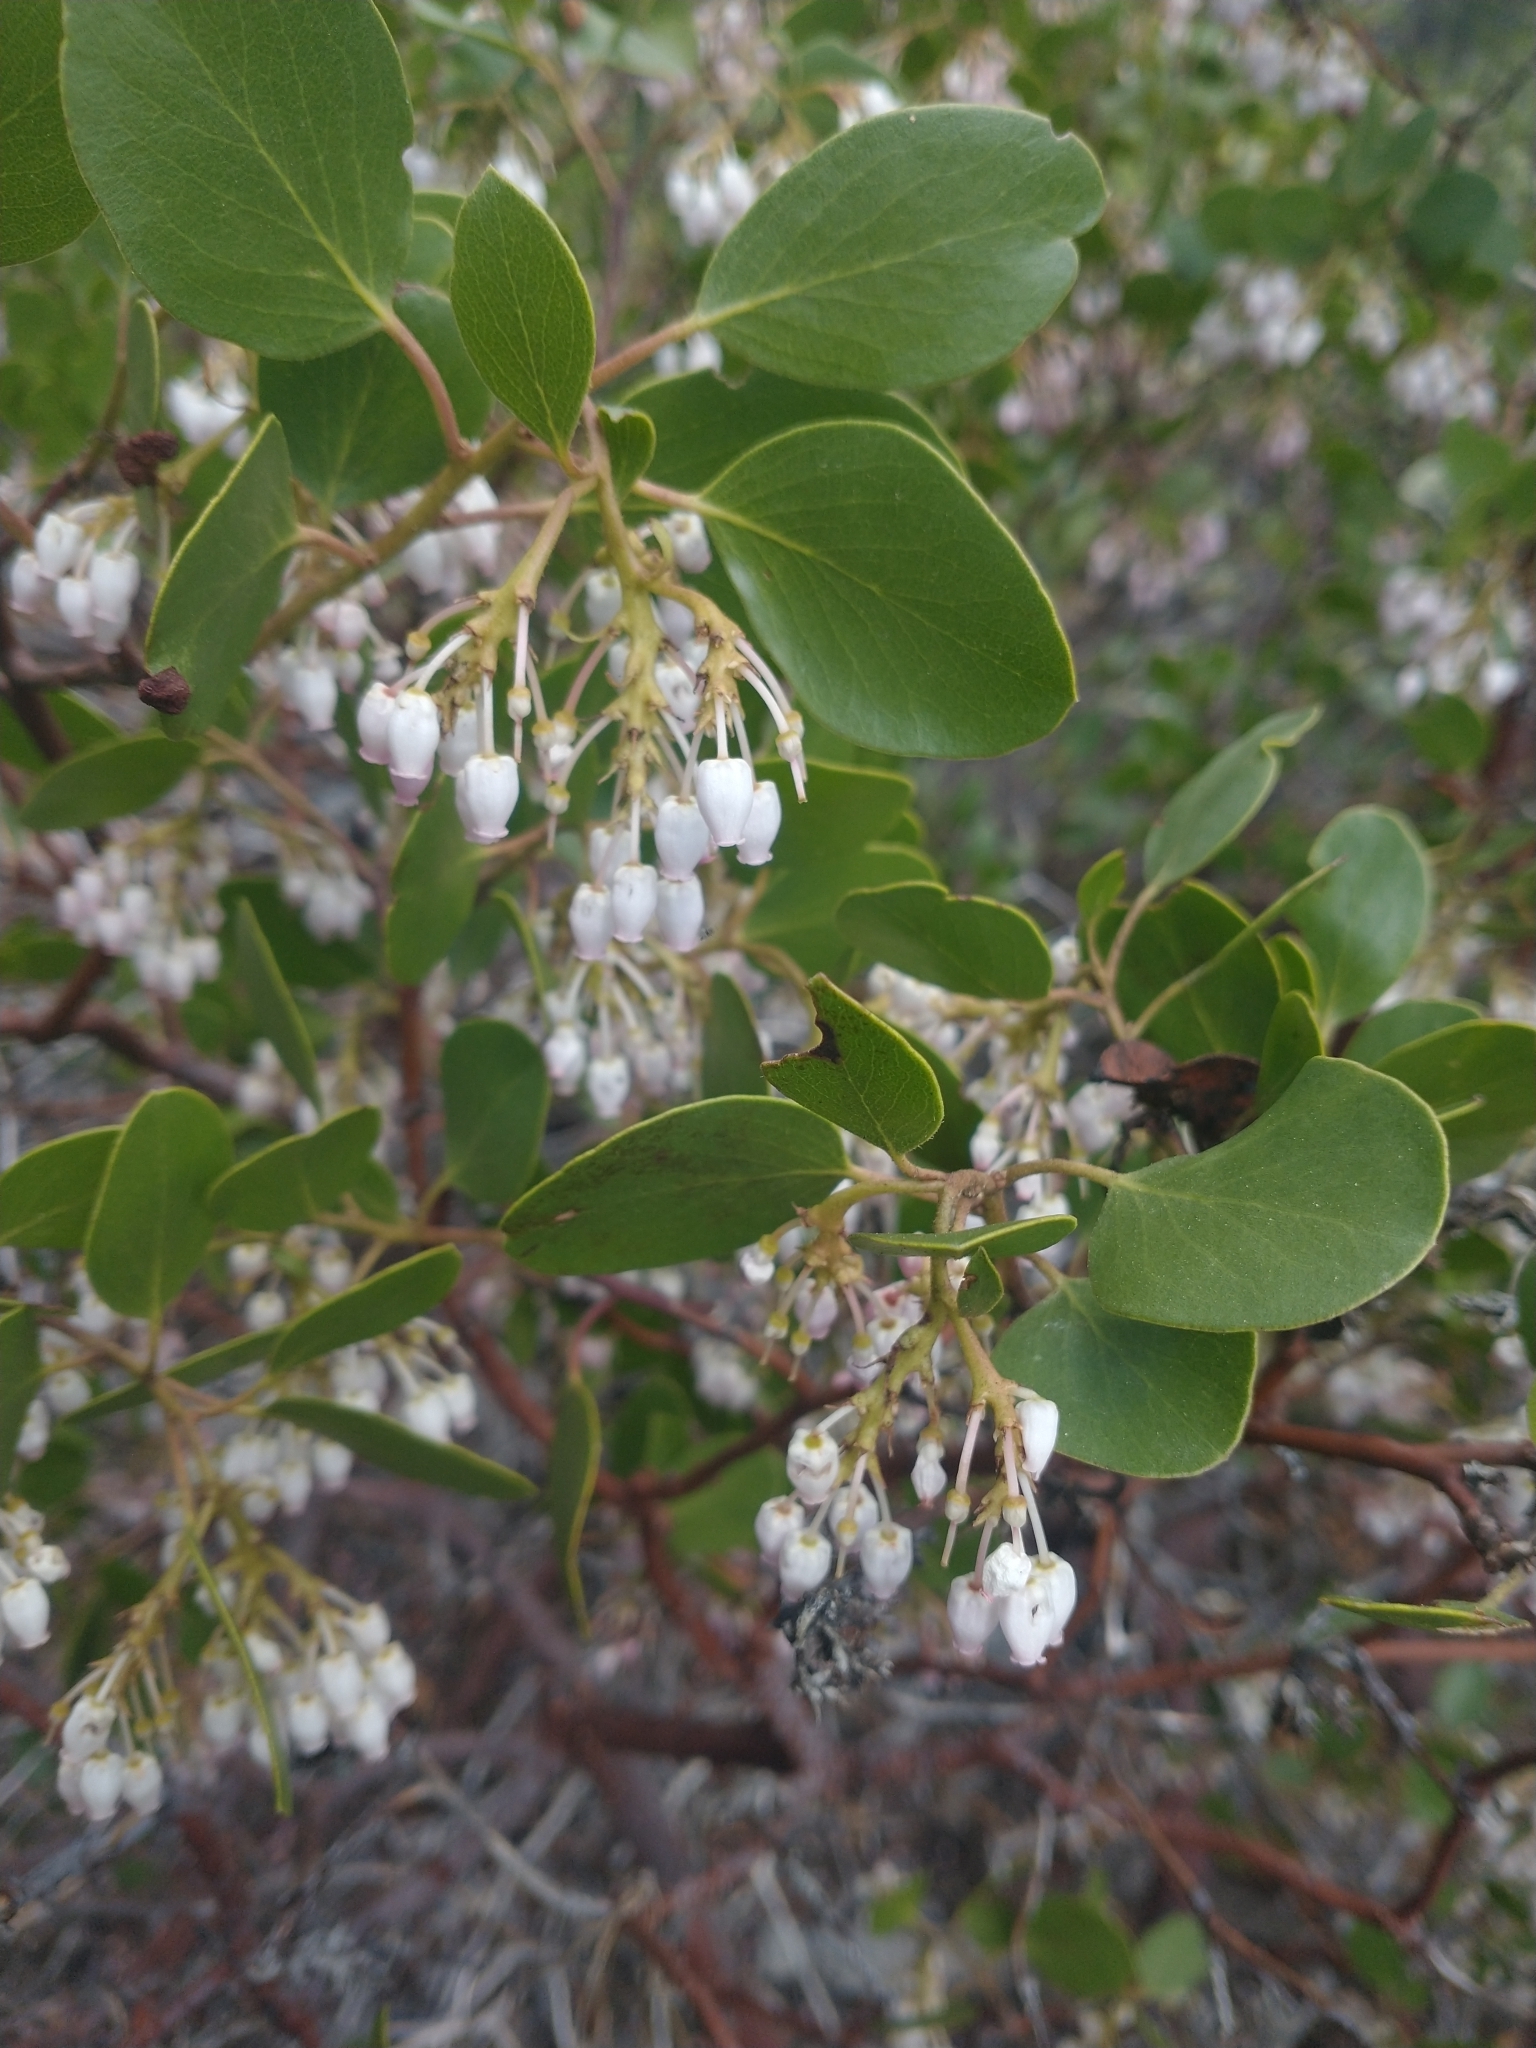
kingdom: Plantae
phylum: Tracheophyta
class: Magnoliopsida
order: Ericales
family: Ericaceae
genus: Arctostaphylos
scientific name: Arctostaphylos patula
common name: Green-leaf manzanita
